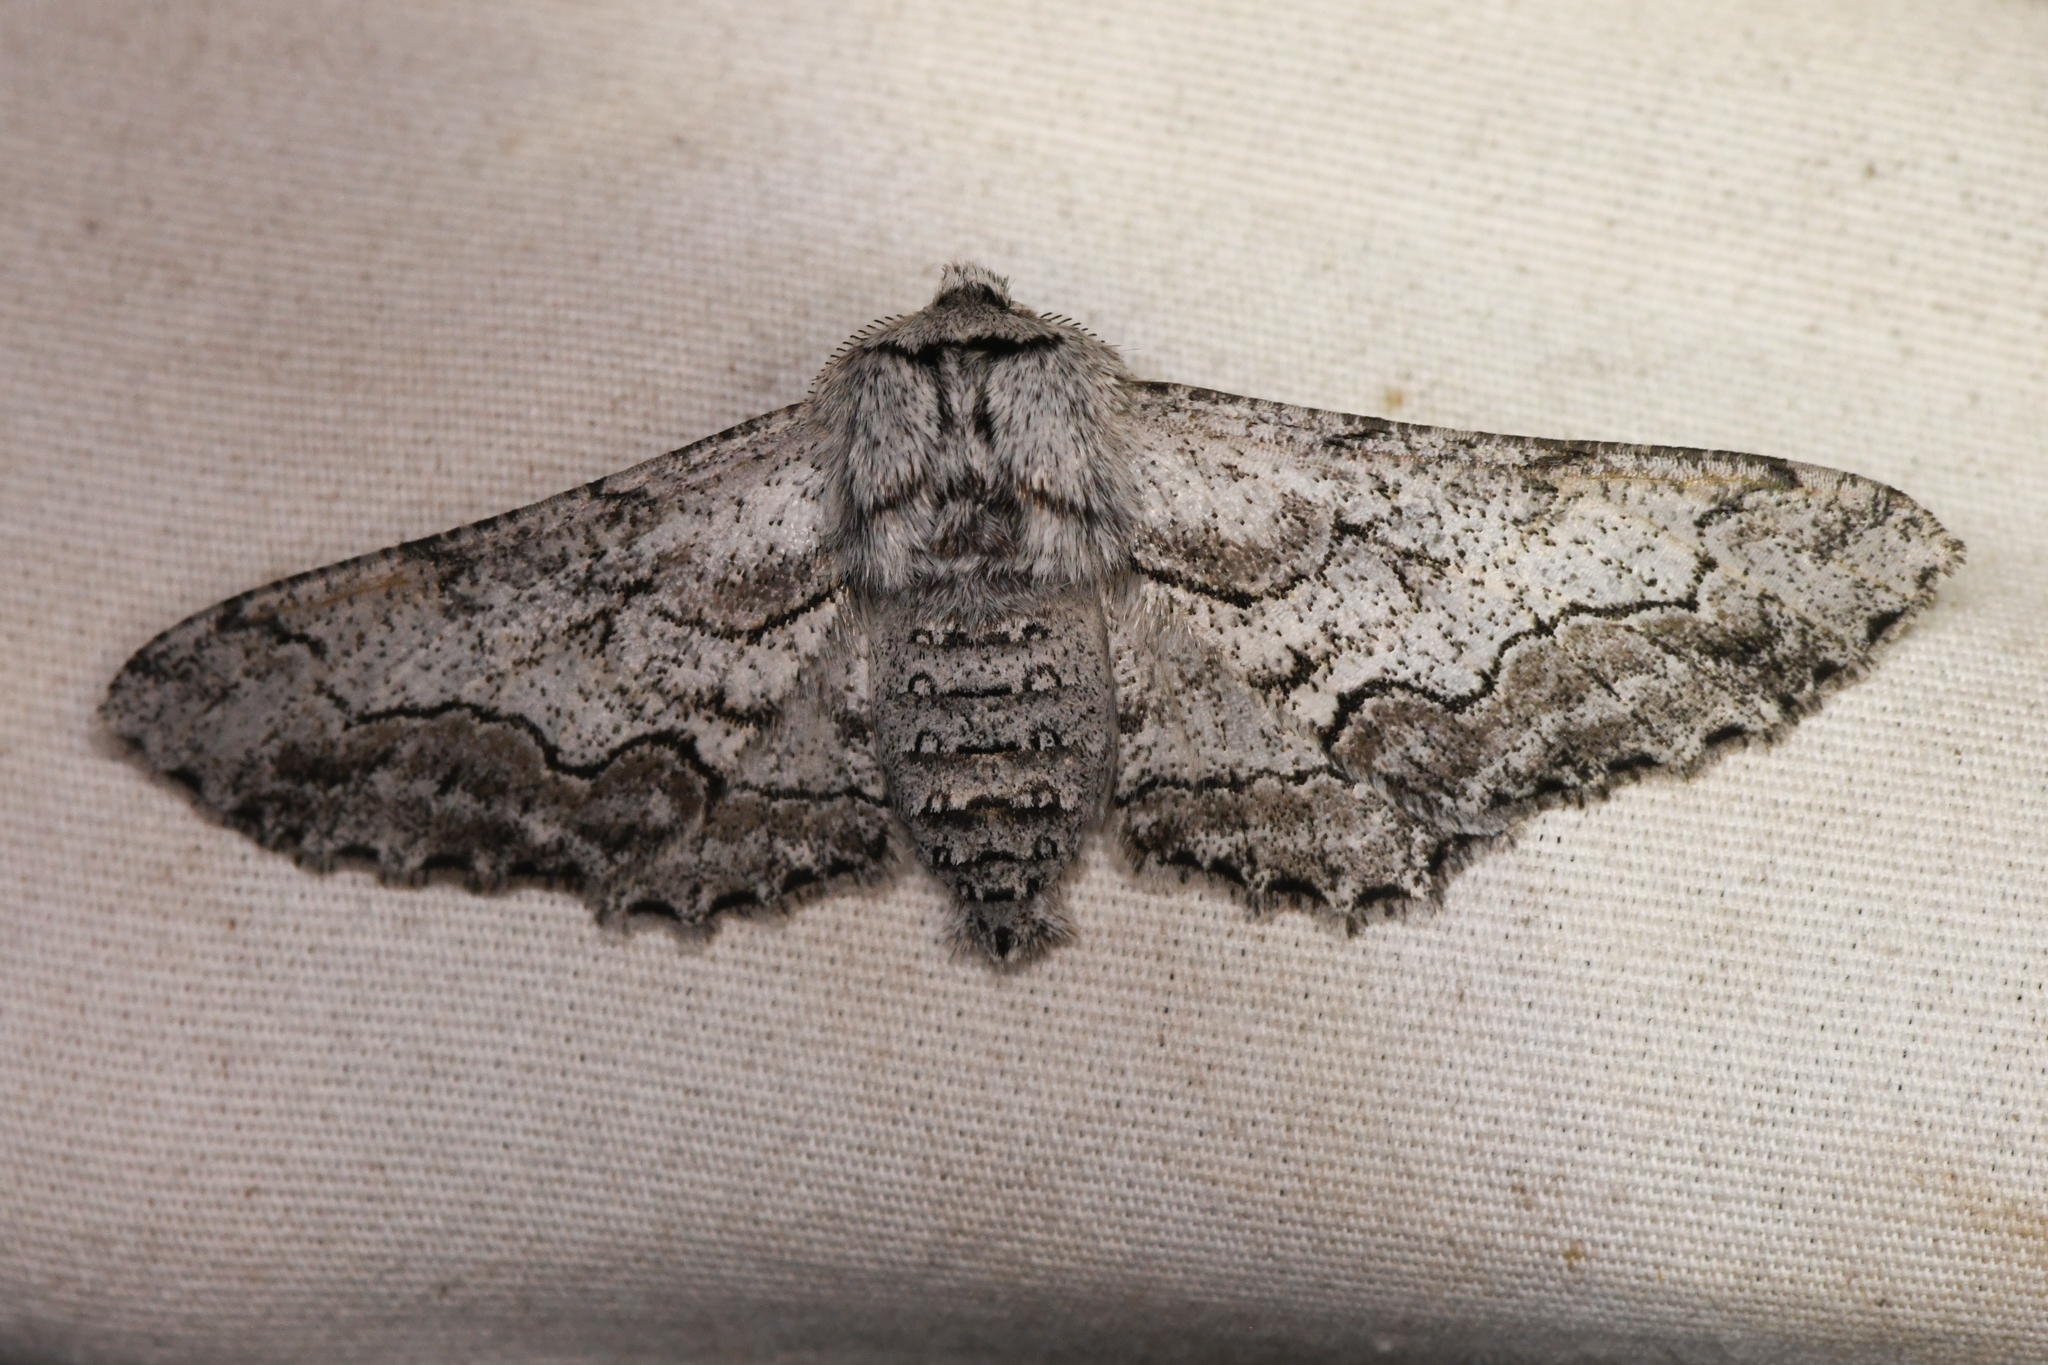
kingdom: Animalia
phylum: Arthropoda
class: Insecta
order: Lepidoptera
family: Geometridae
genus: Biston
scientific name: Biston sinuata
